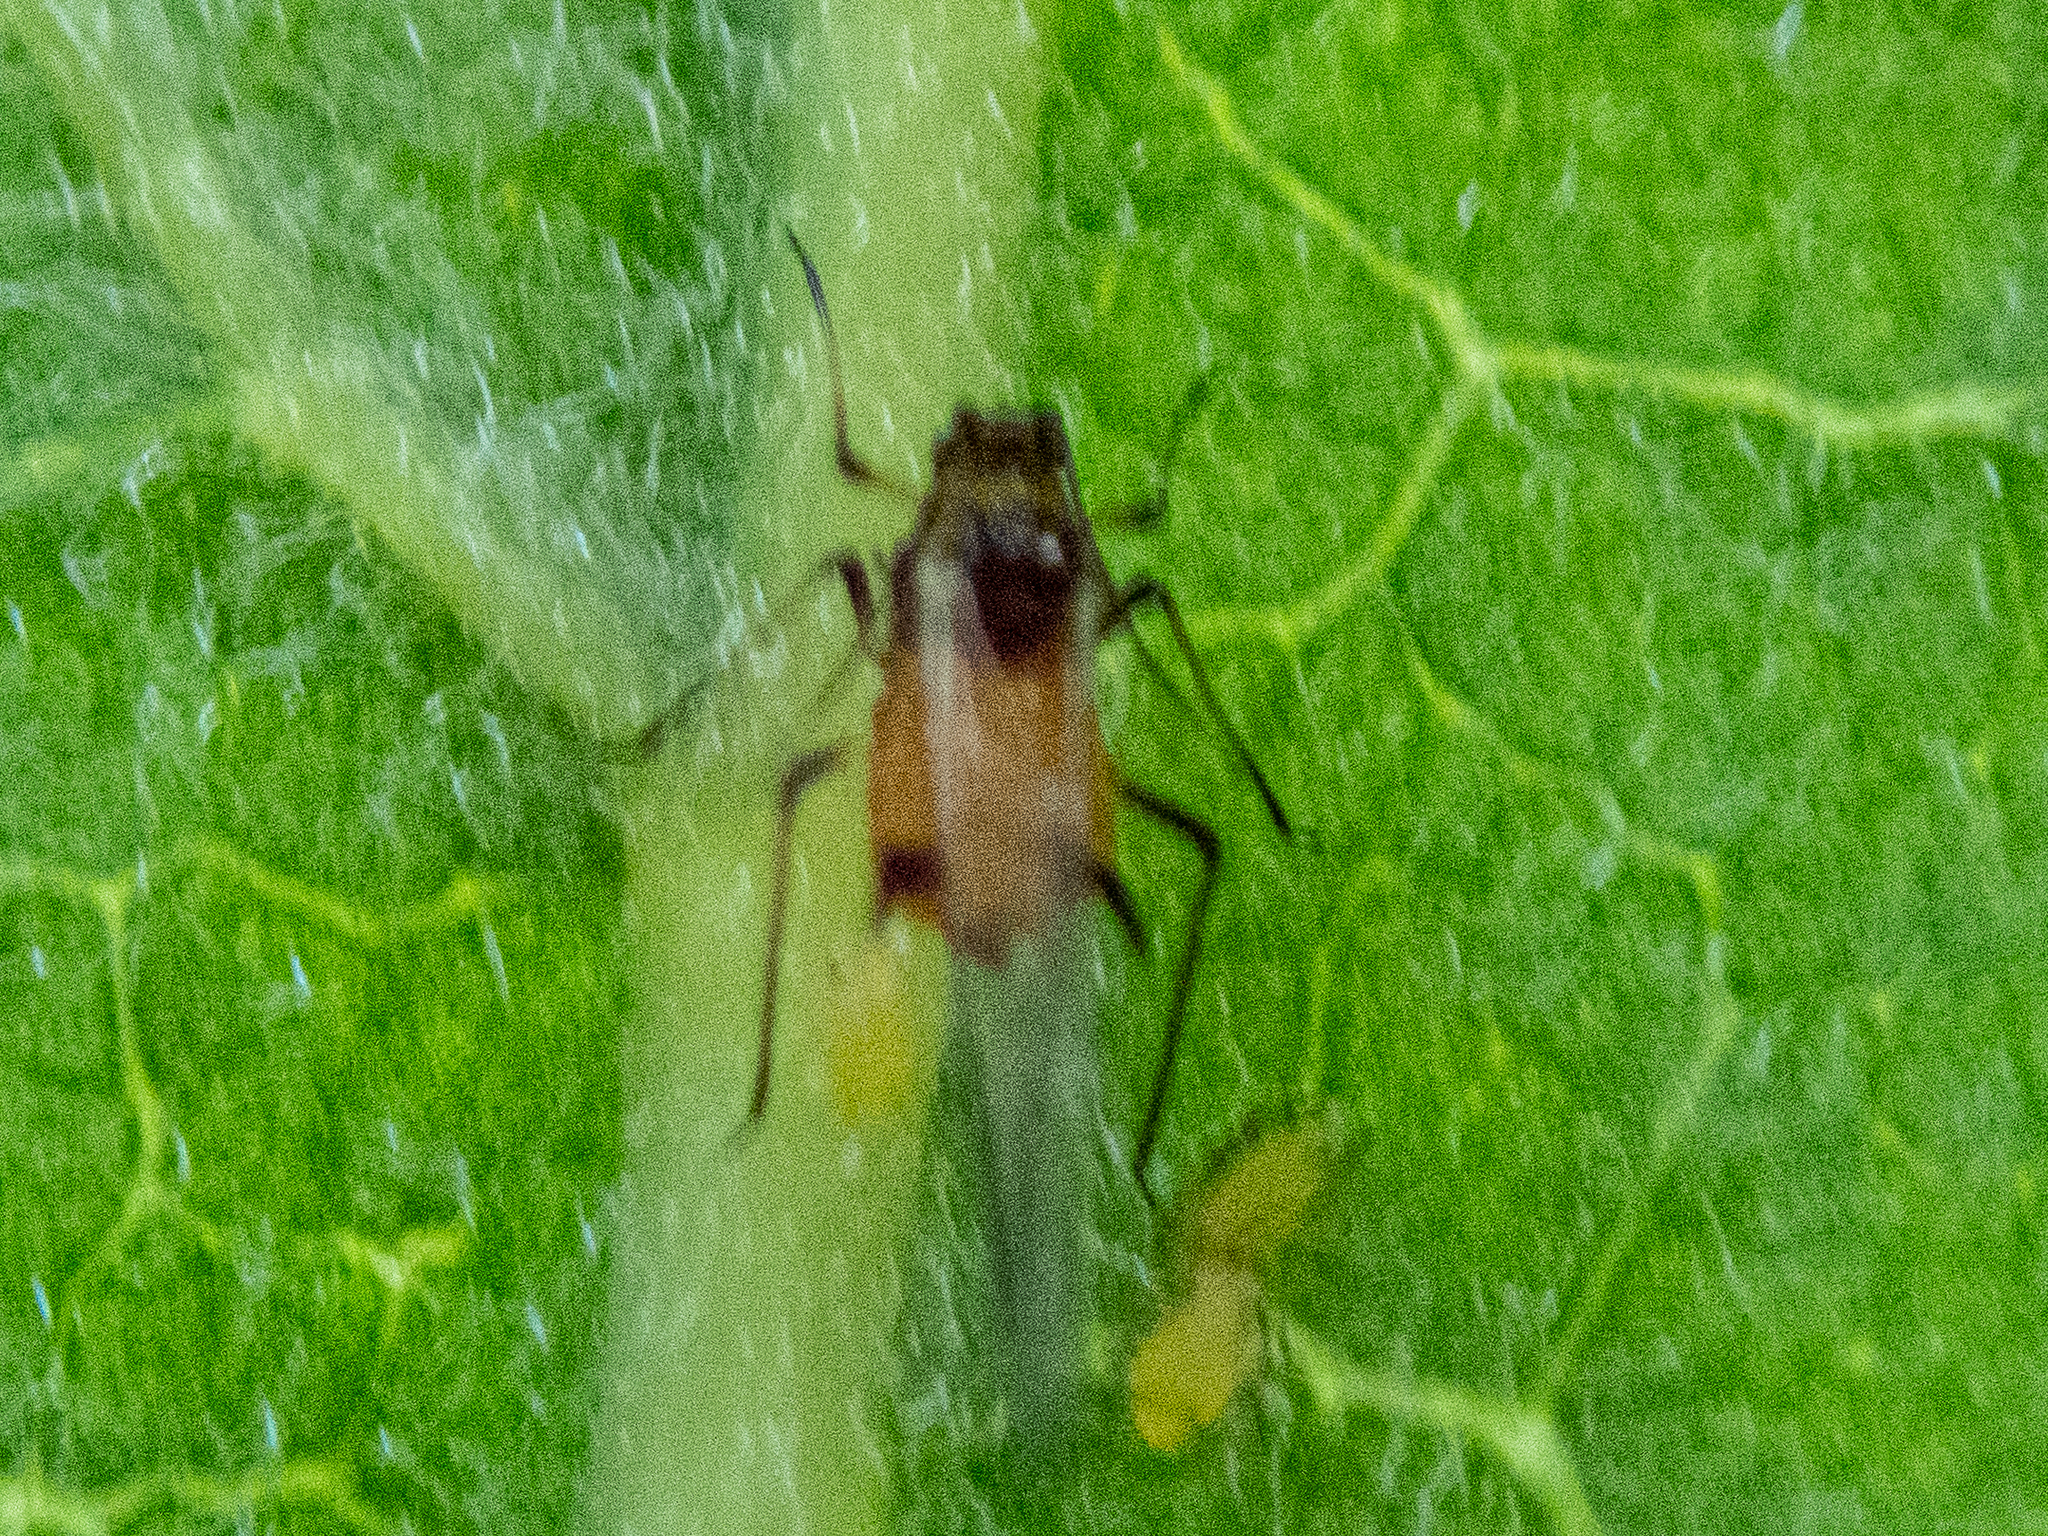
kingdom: Animalia
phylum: Arthropoda
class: Insecta
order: Hemiptera
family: Aphididae
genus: Aphis
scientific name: Aphis nerii
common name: Oleander aphid
